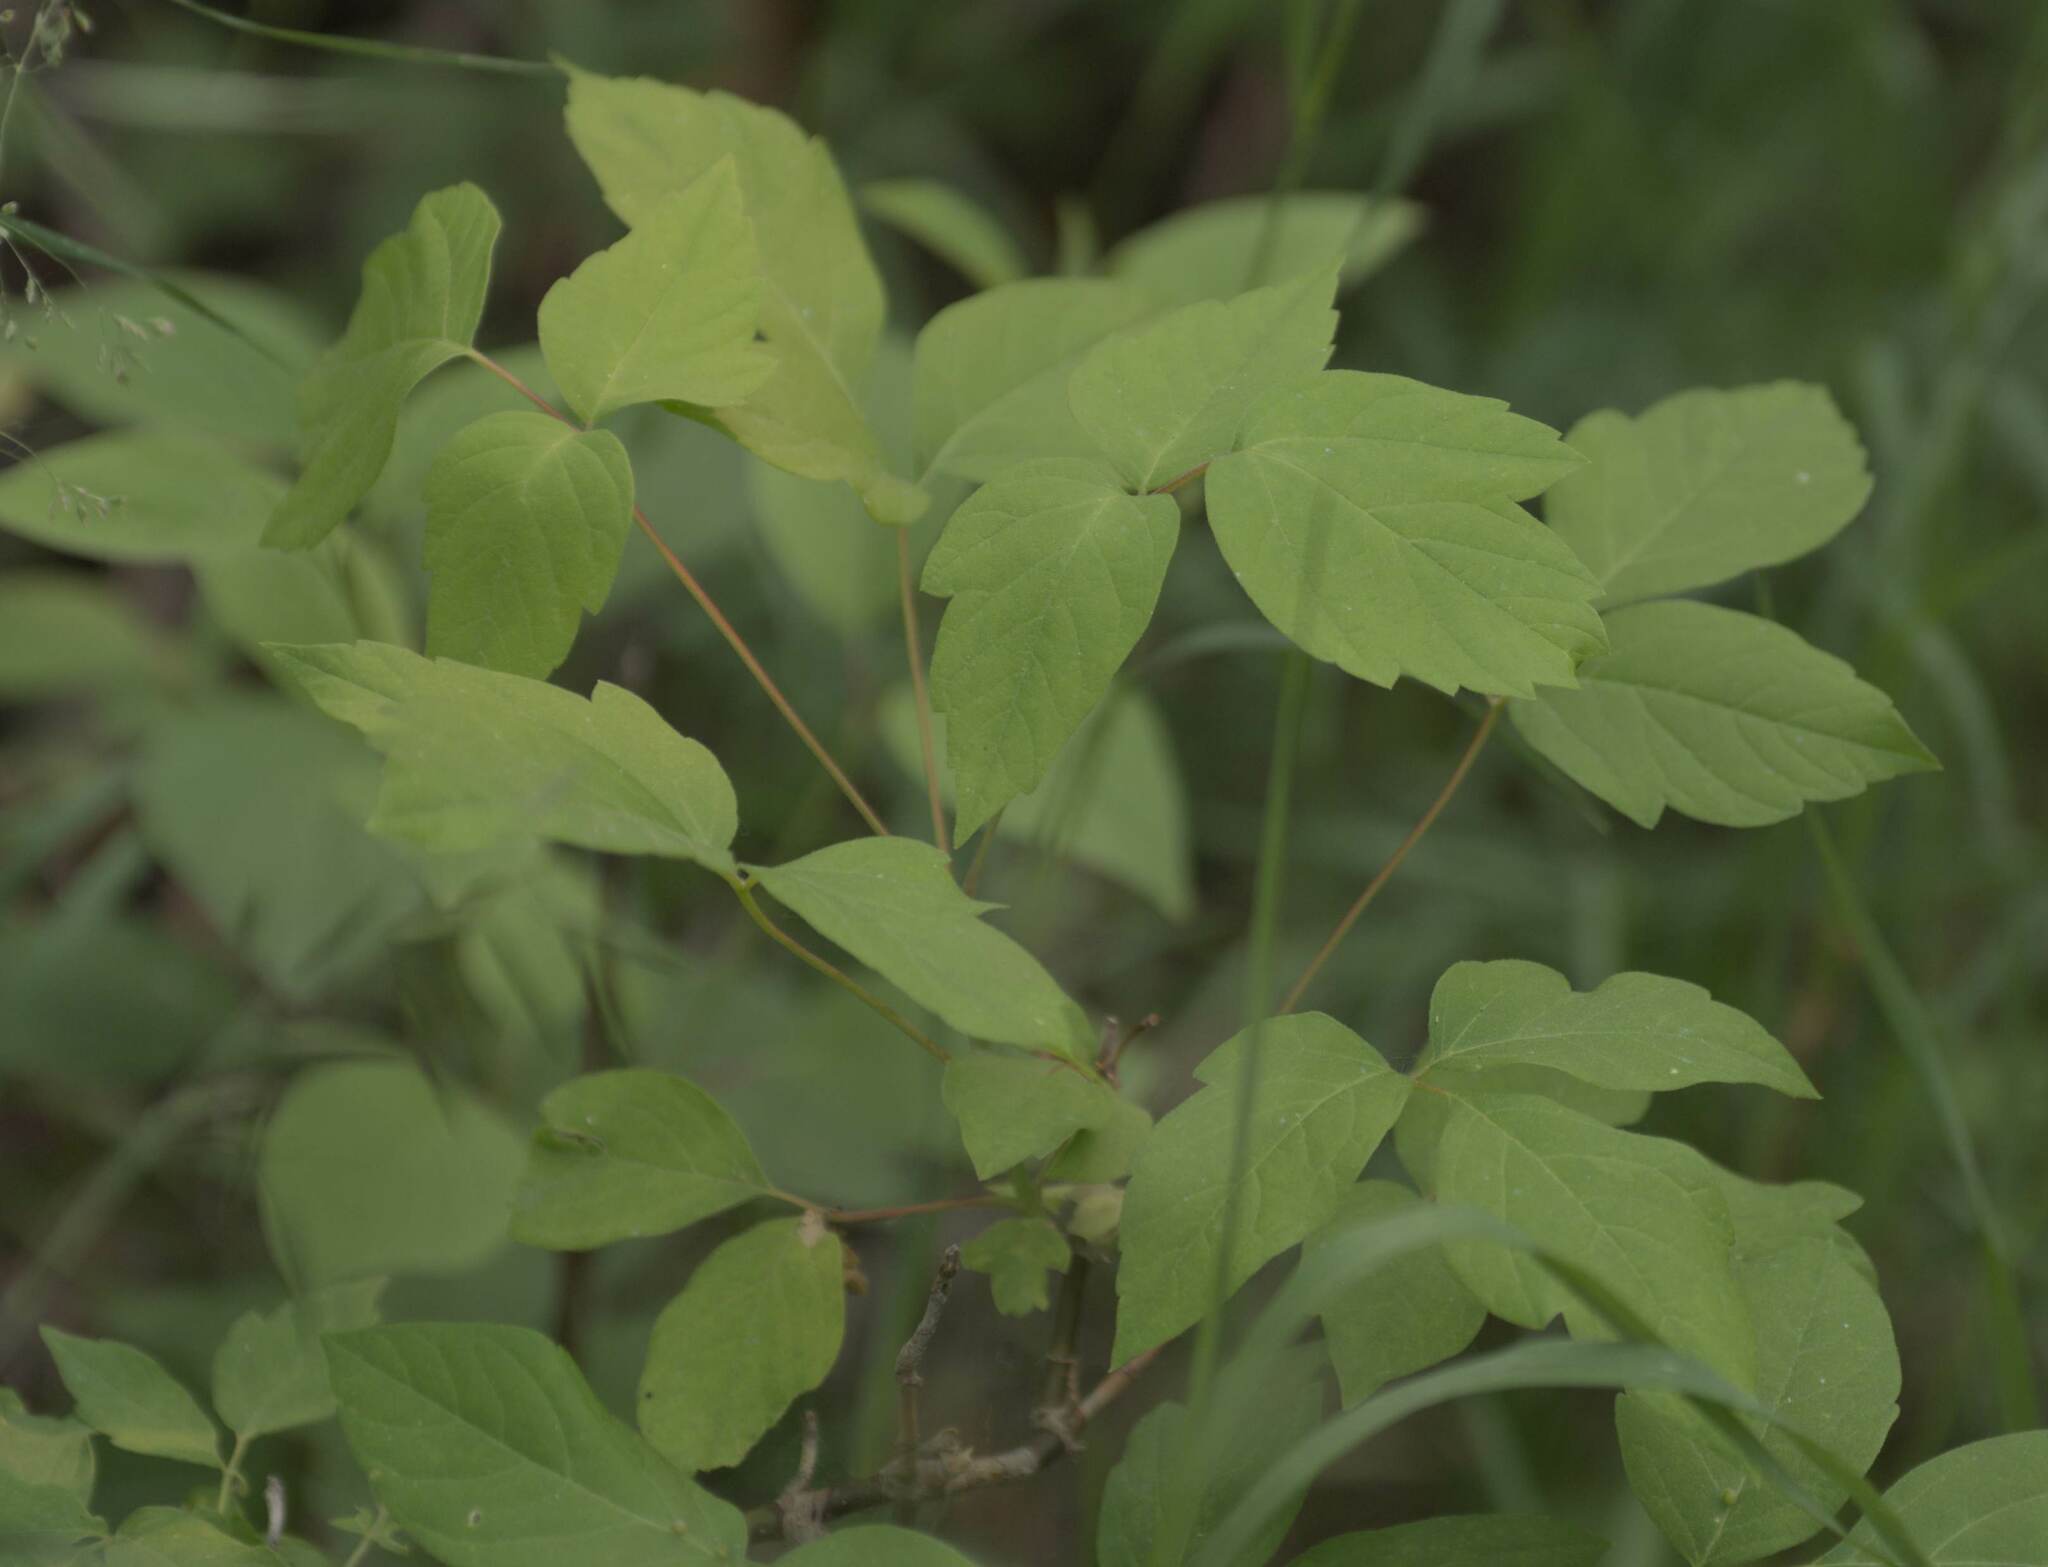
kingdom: Plantae
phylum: Tracheophyta
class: Magnoliopsida
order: Sapindales
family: Sapindaceae
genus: Acer
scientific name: Acer negundo
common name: Ashleaf maple
